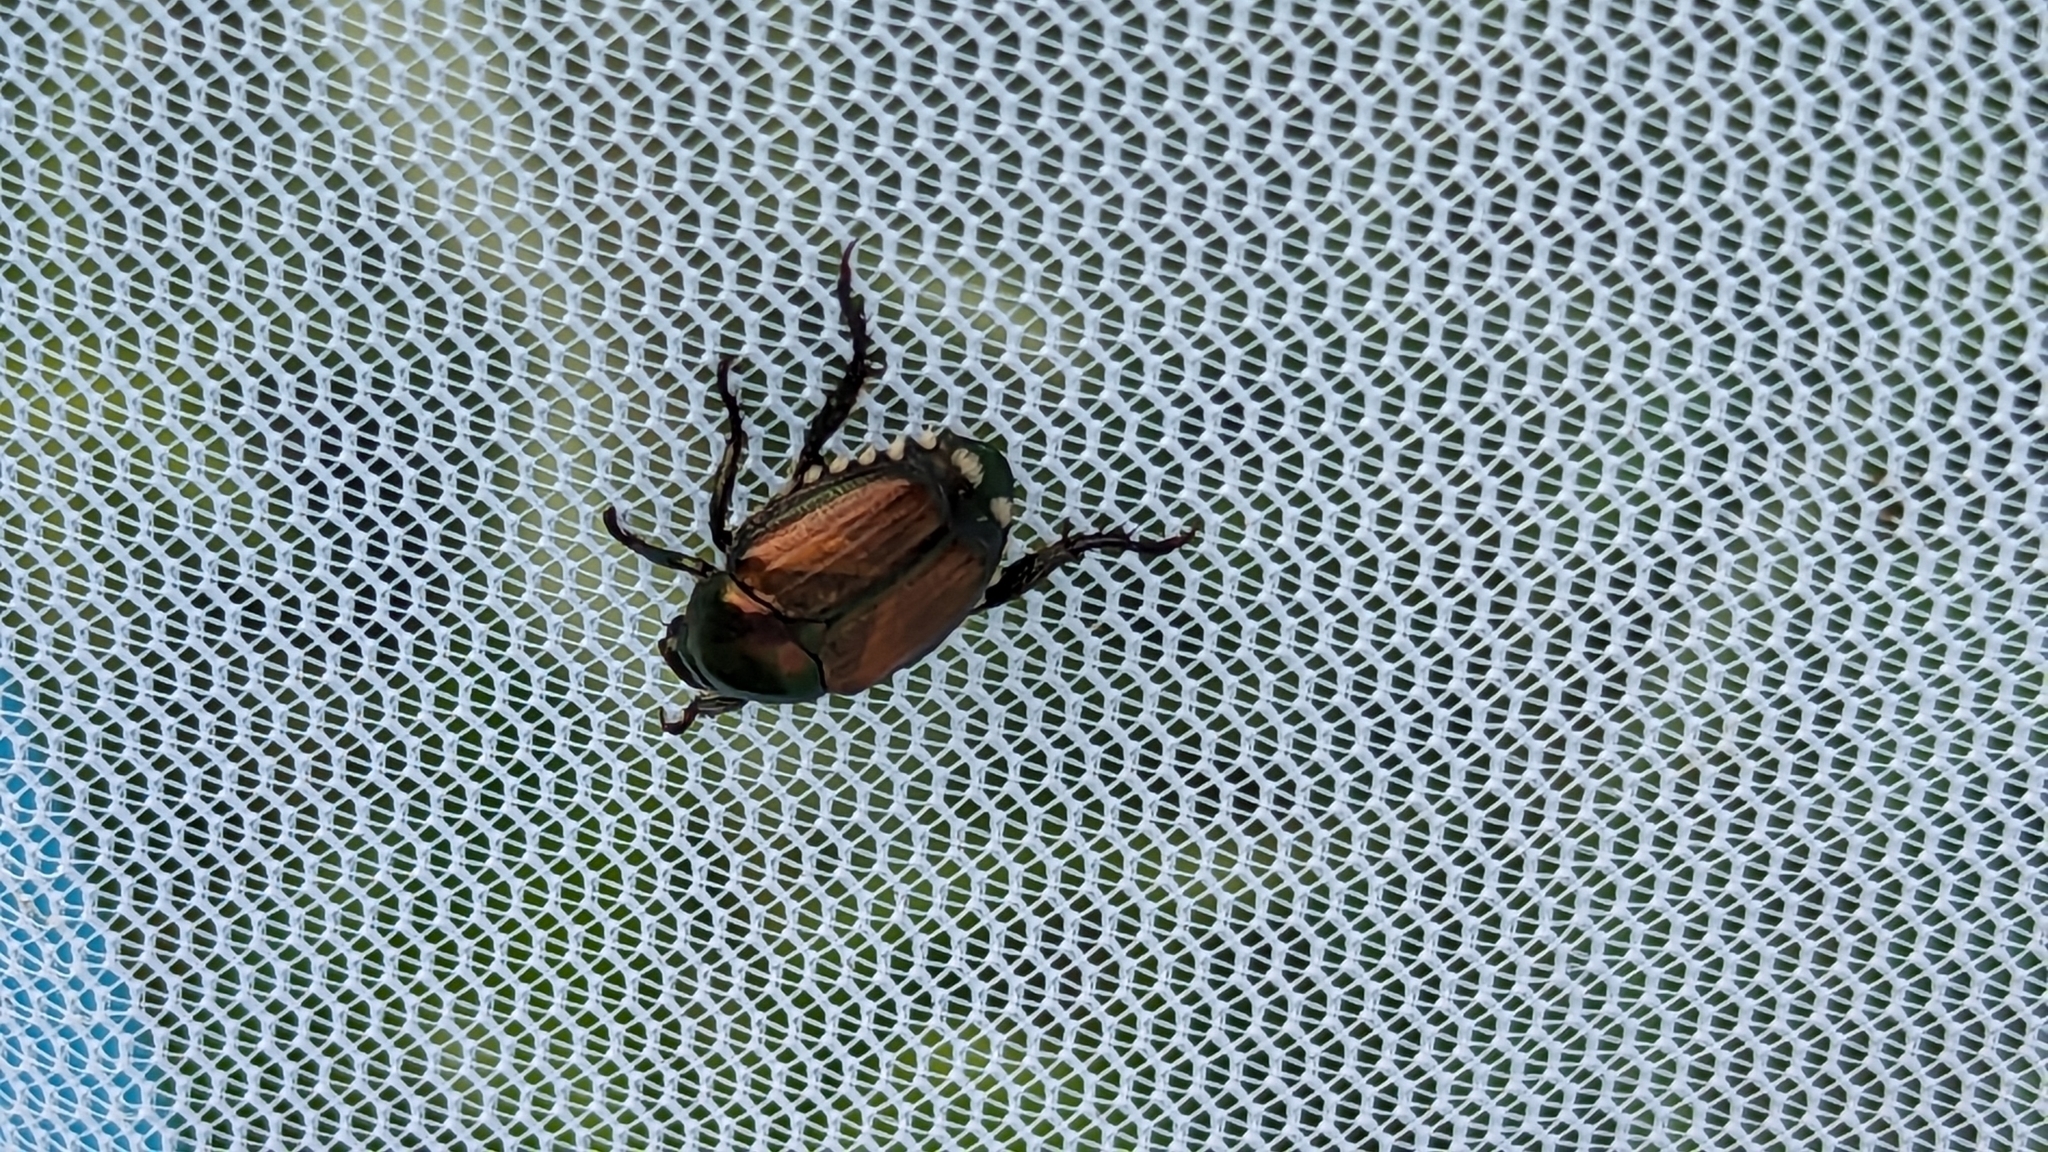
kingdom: Animalia
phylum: Arthropoda
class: Insecta
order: Coleoptera
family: Scarabaeidae
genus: Popillia
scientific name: Popillia japonica
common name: Japanese beetle
